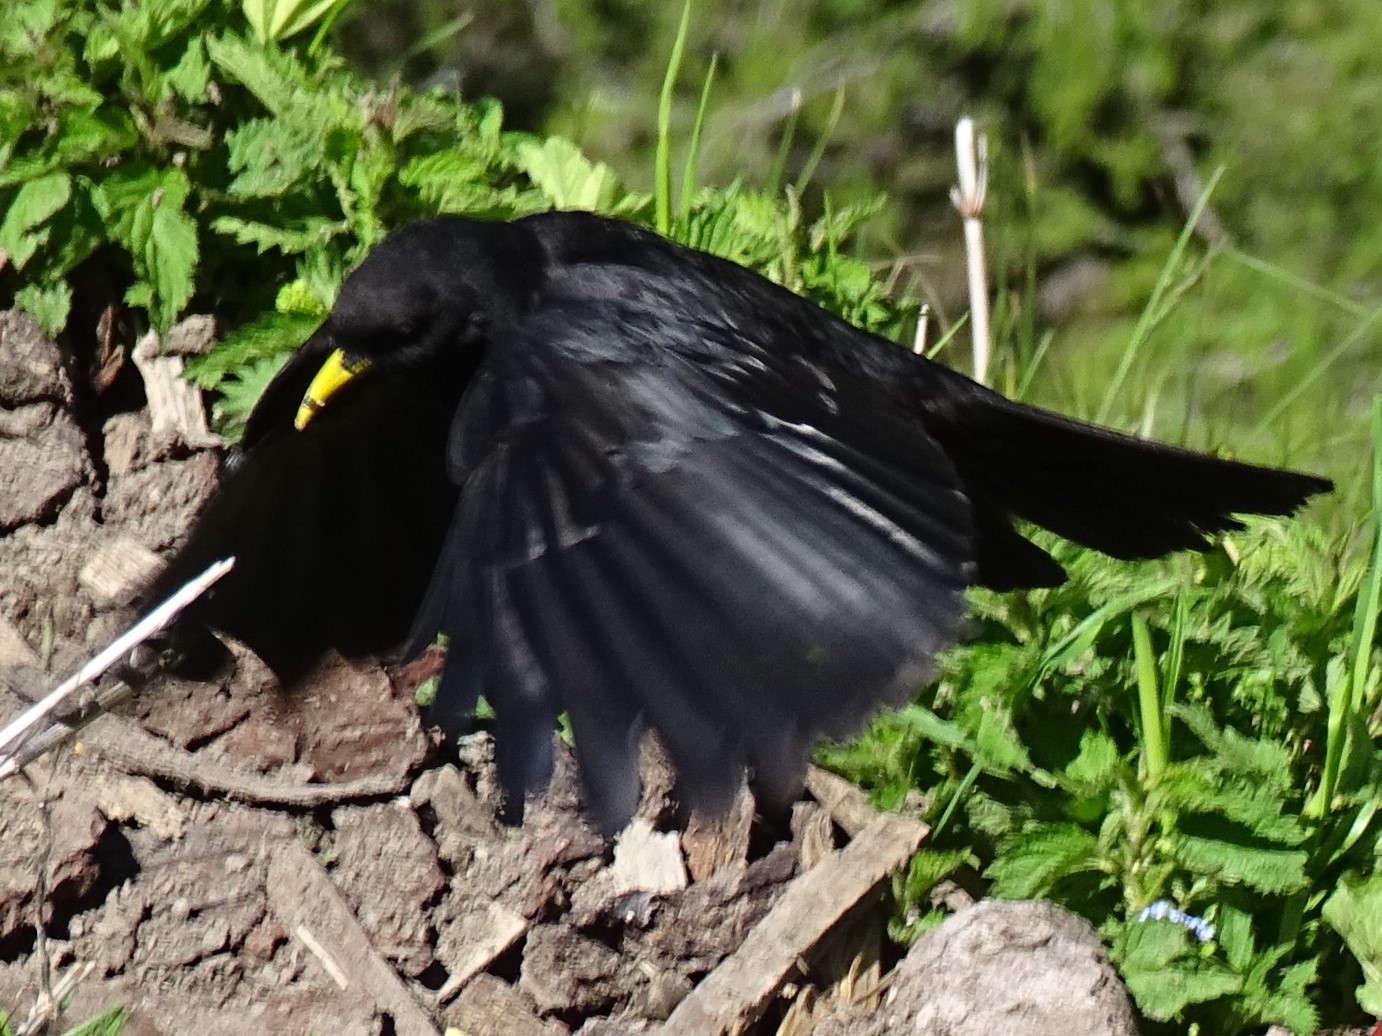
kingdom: Animalia
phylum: Chordata
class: Aves
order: Passeriformes
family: Corvidae
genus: Pyrrhocorax
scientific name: Pyrrhocorax graculus
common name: Alpine chough
